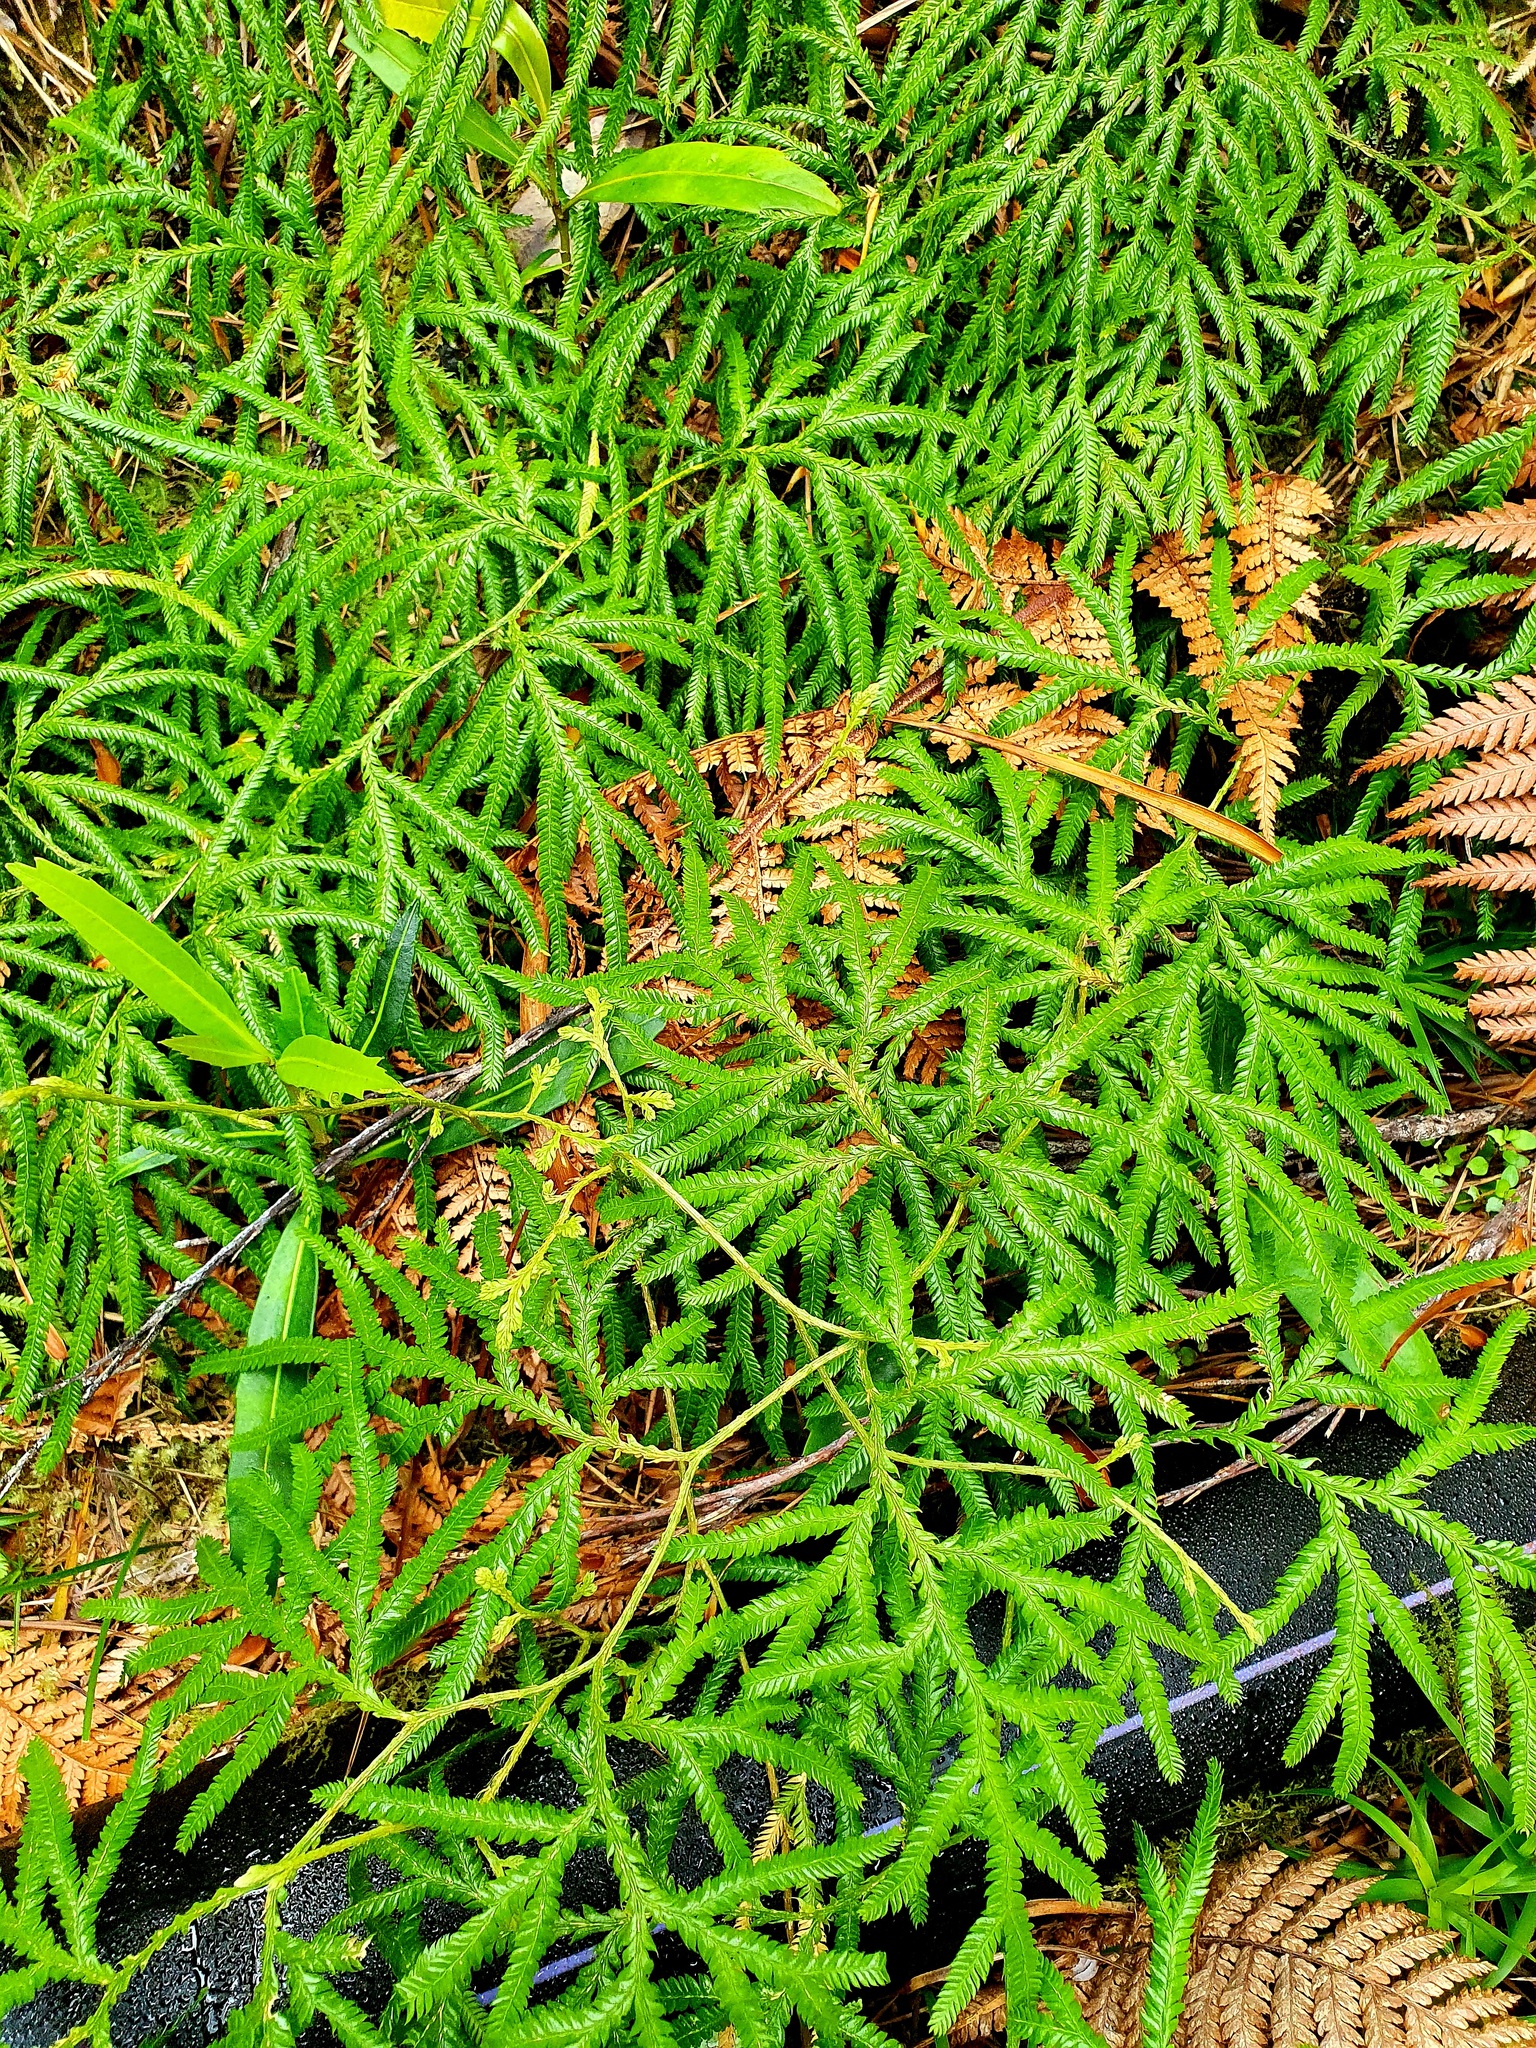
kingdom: Plantae
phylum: Tracheophyta
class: Lycopodiopsida
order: Lycopodiales
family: Lycopodiaceae
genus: Lycopodium
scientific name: Lycopodium volubile
